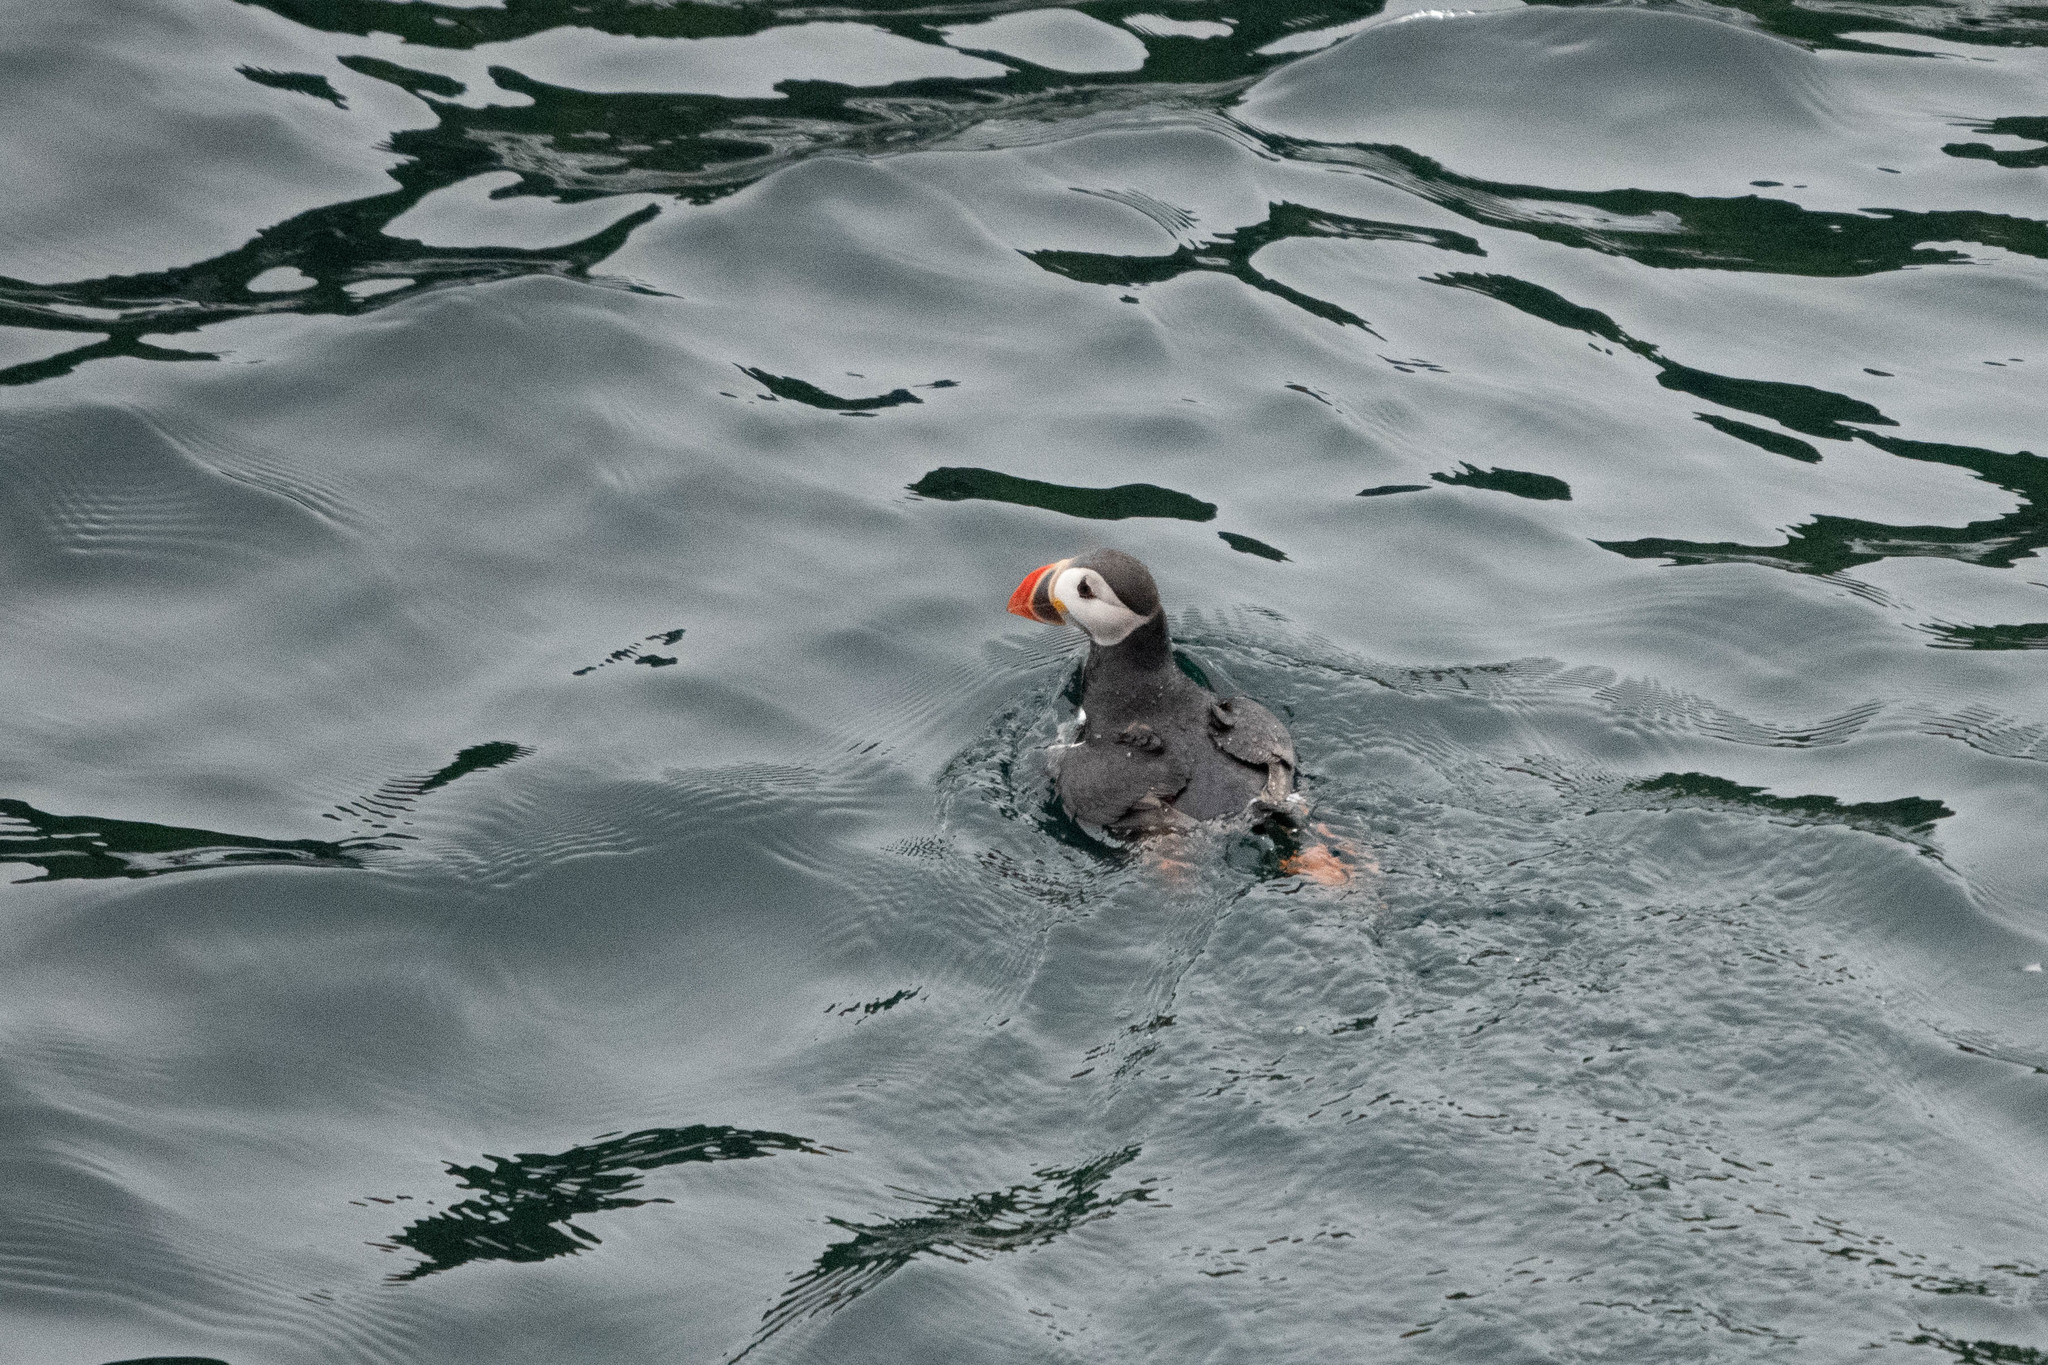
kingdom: Animalia
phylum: Chordata
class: Aves
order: Charadriiformes
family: Alcidae
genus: Fratercula
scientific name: Fratercula arctica
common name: Atlantic puffin
